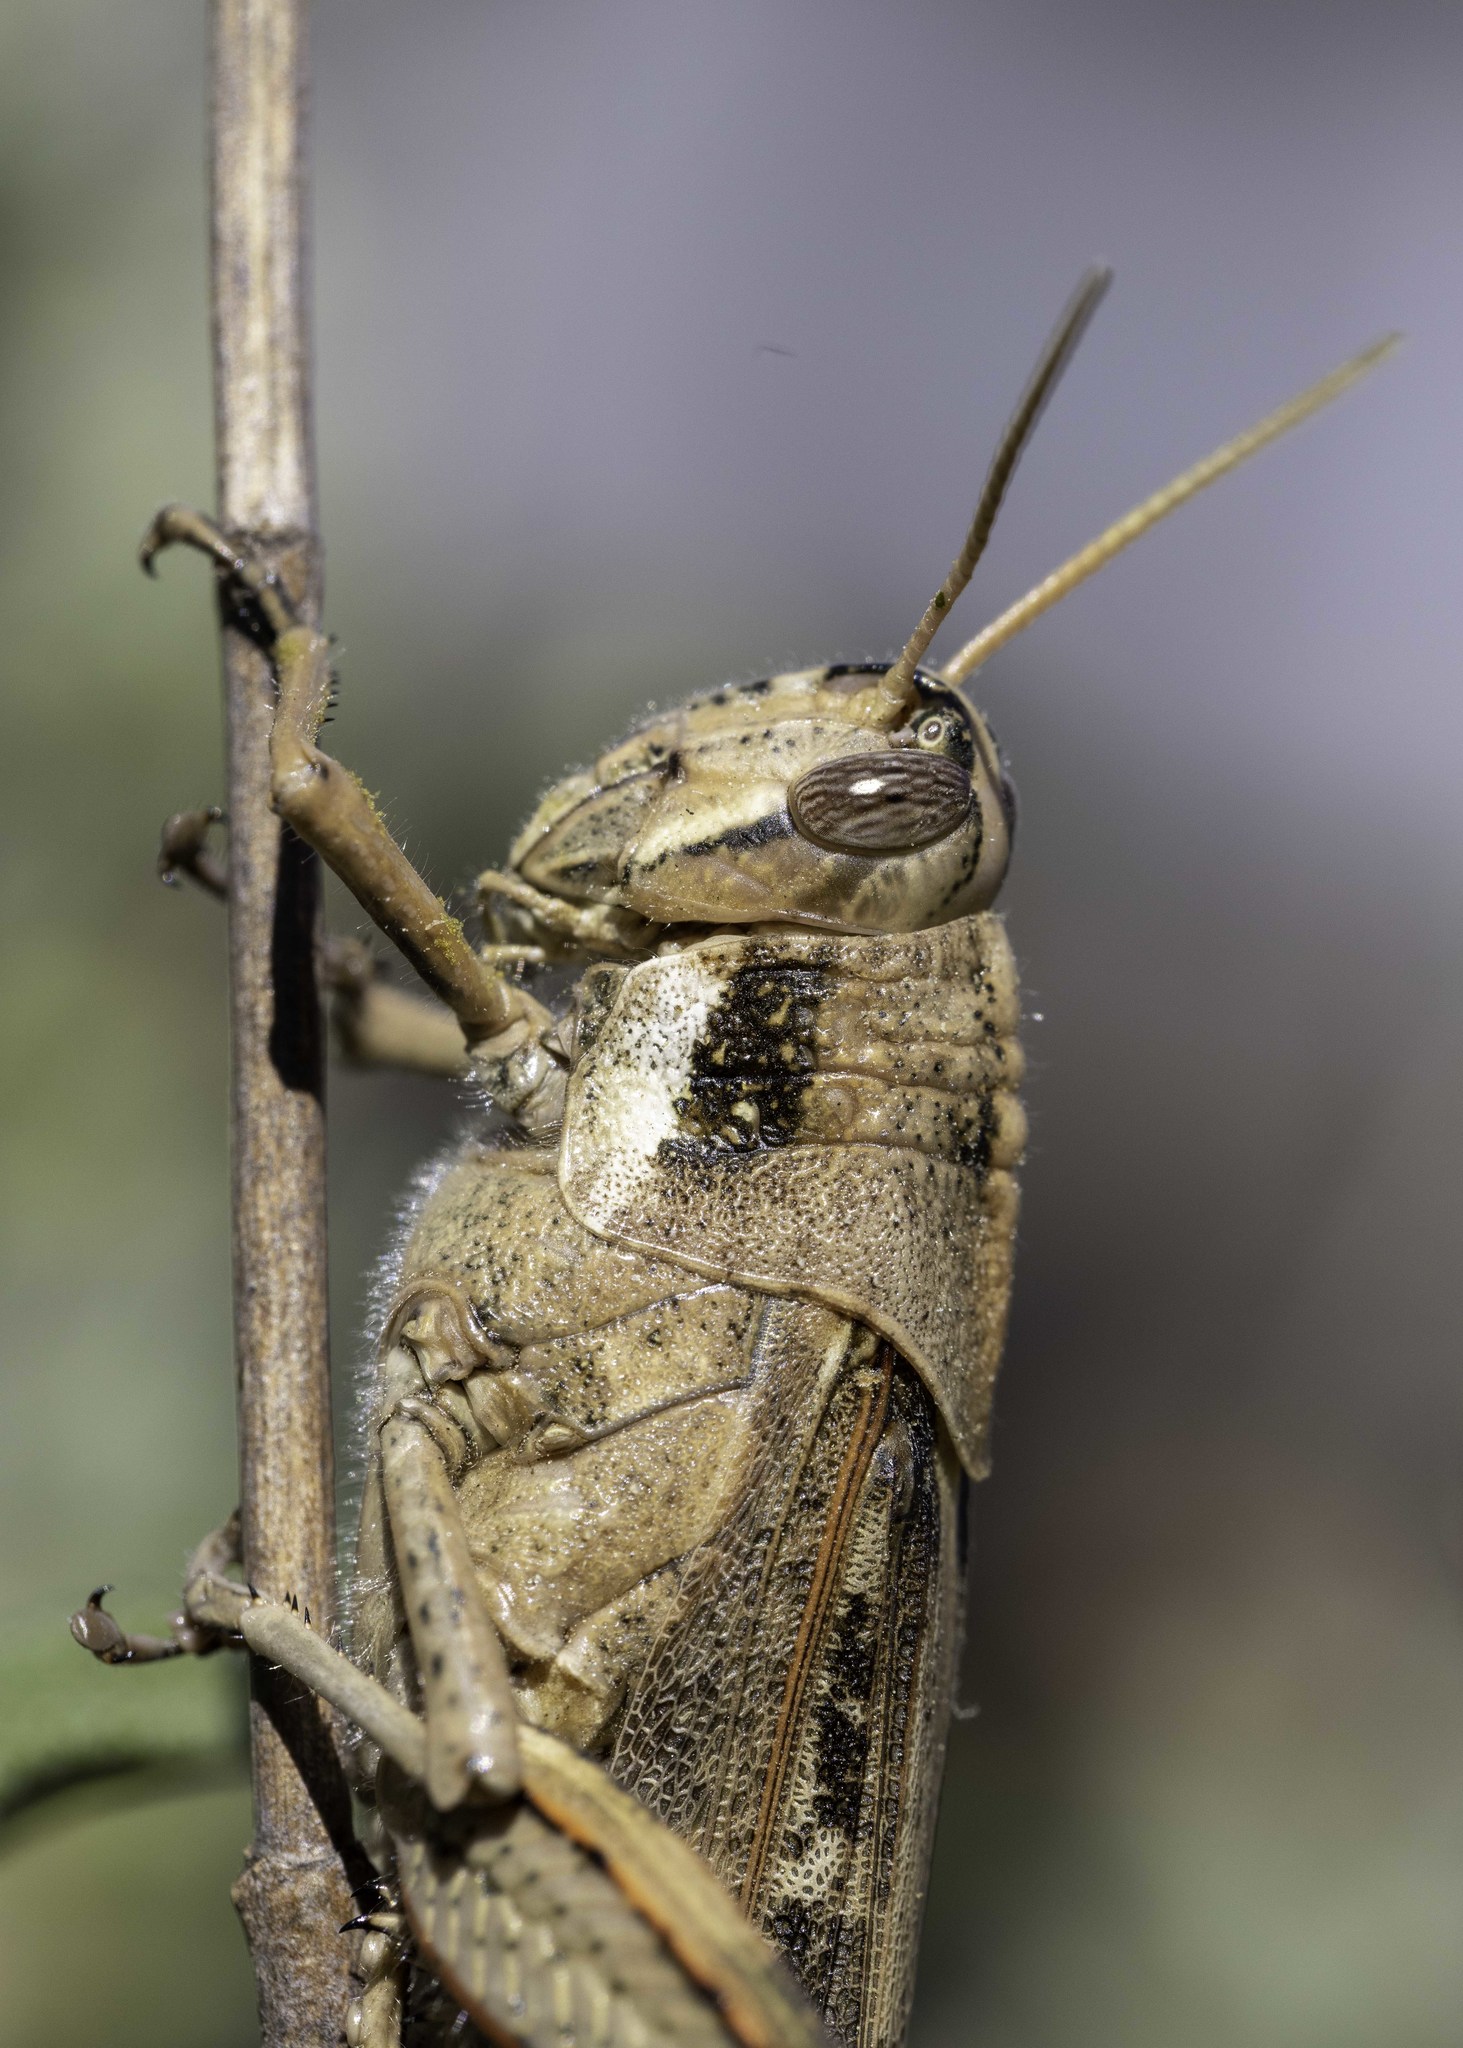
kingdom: Animalia
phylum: Arthropoda
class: Insecta
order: Orthoptera
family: Acrididae
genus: Schistocerca
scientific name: Schistocerca nitens
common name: Vagrant grasshopper
